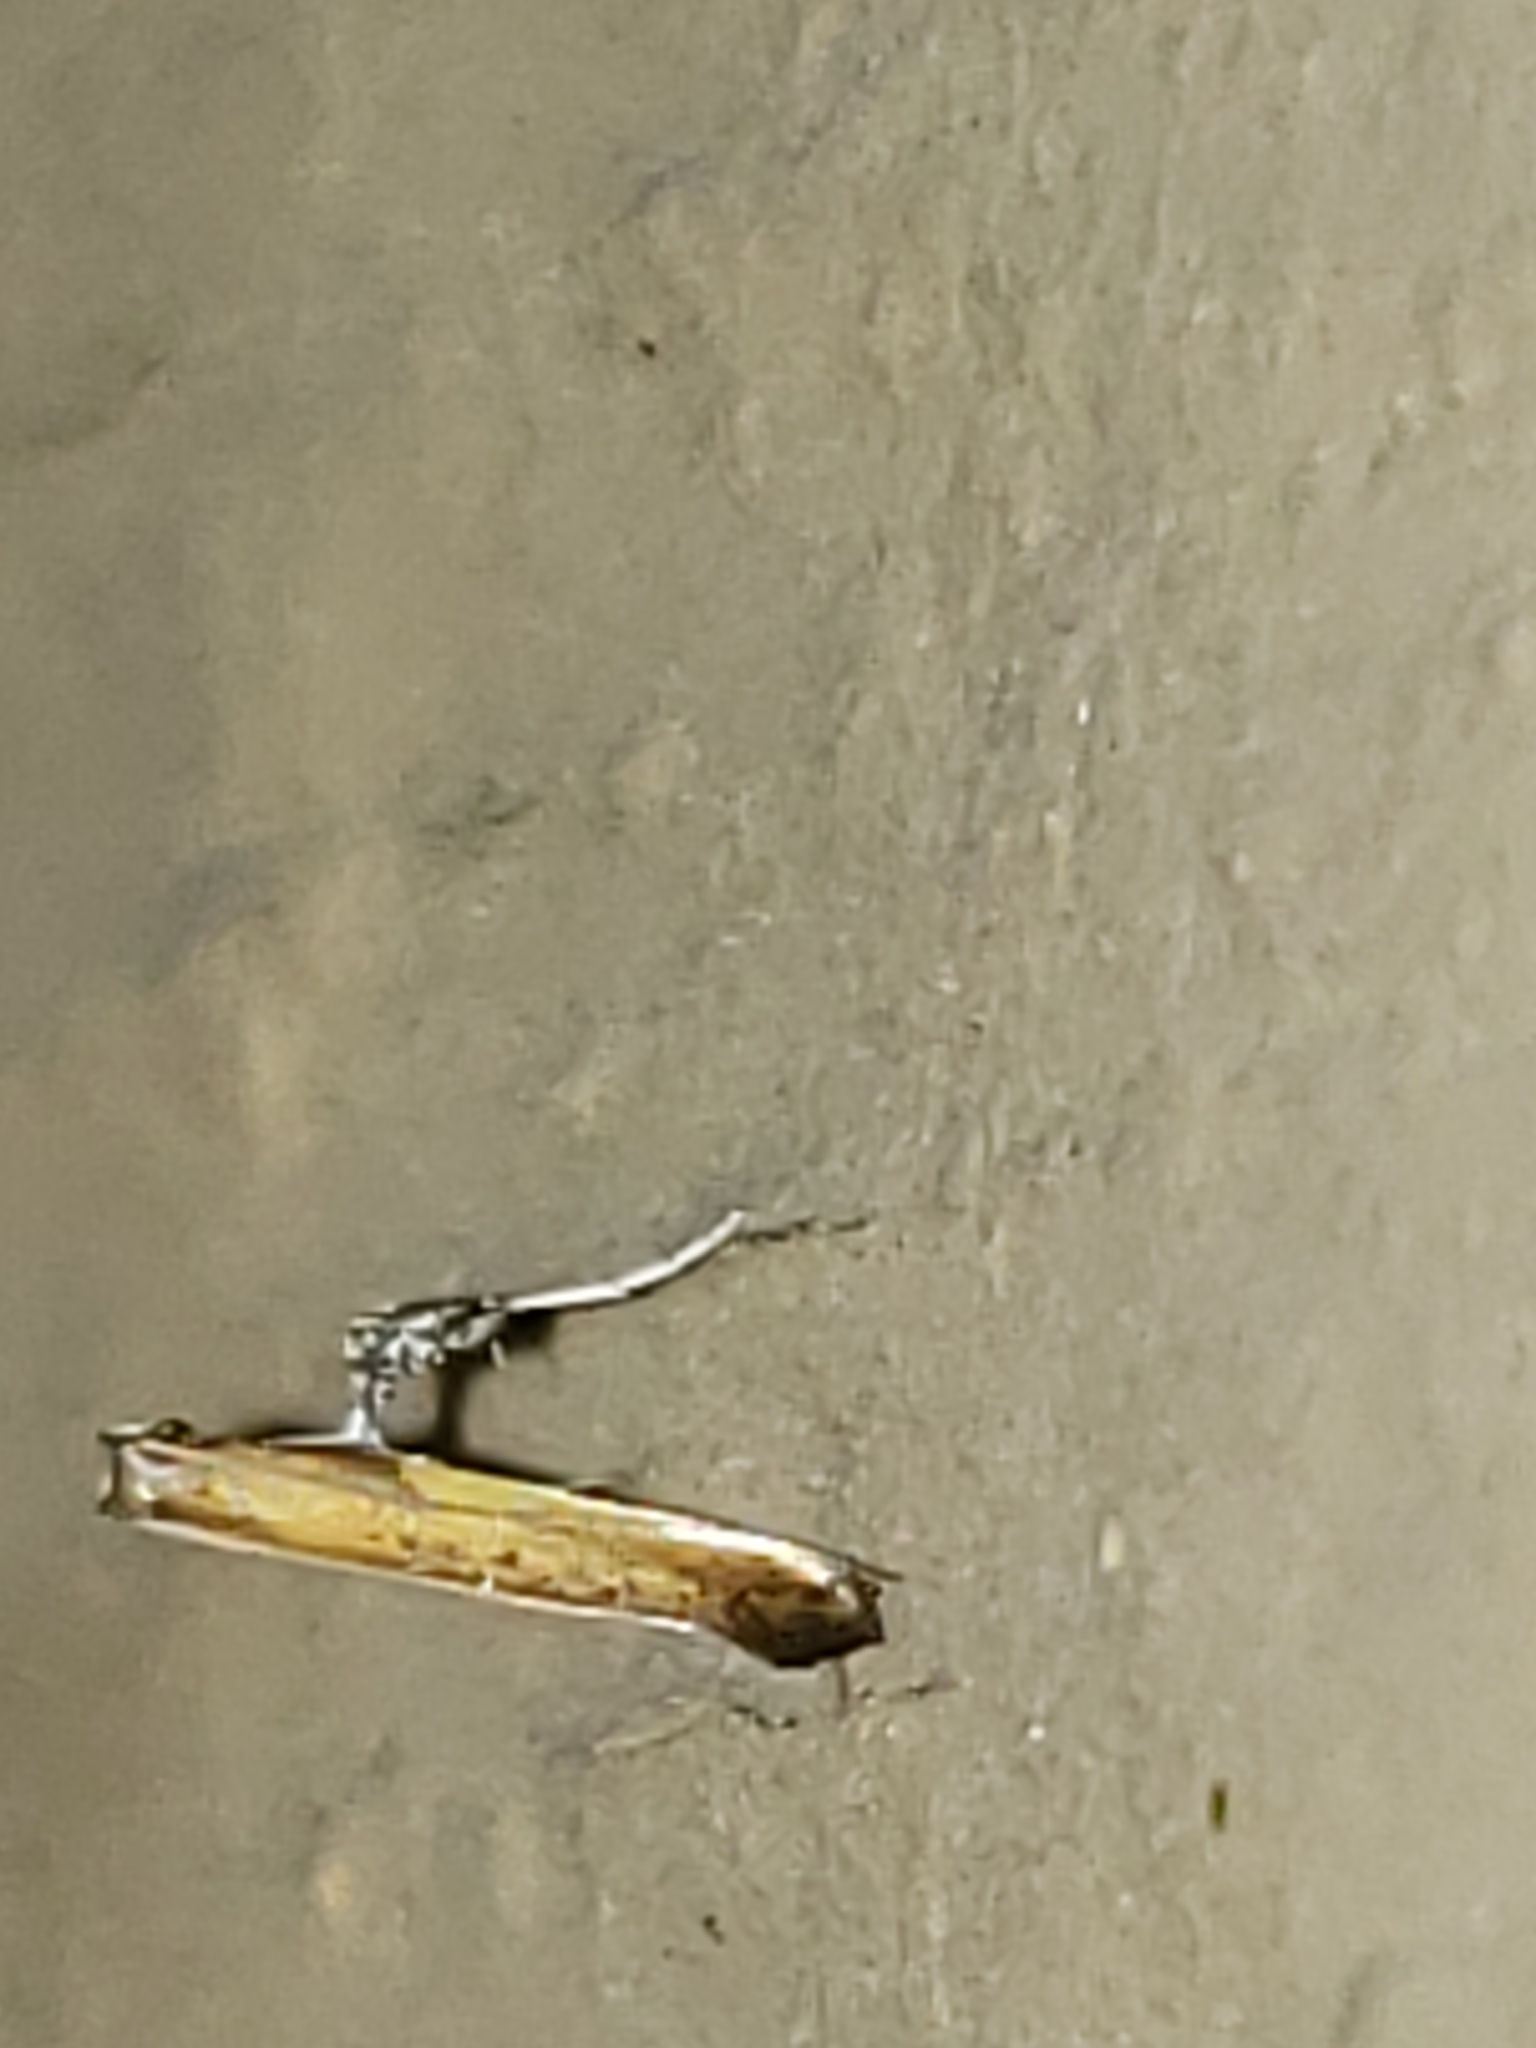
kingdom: Animalia
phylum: Arthropoda
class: Insecta
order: Lepidoptera
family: Gracillariidae
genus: Caloptilia
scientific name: Caloptilia azaleella
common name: Azalea leafminer
